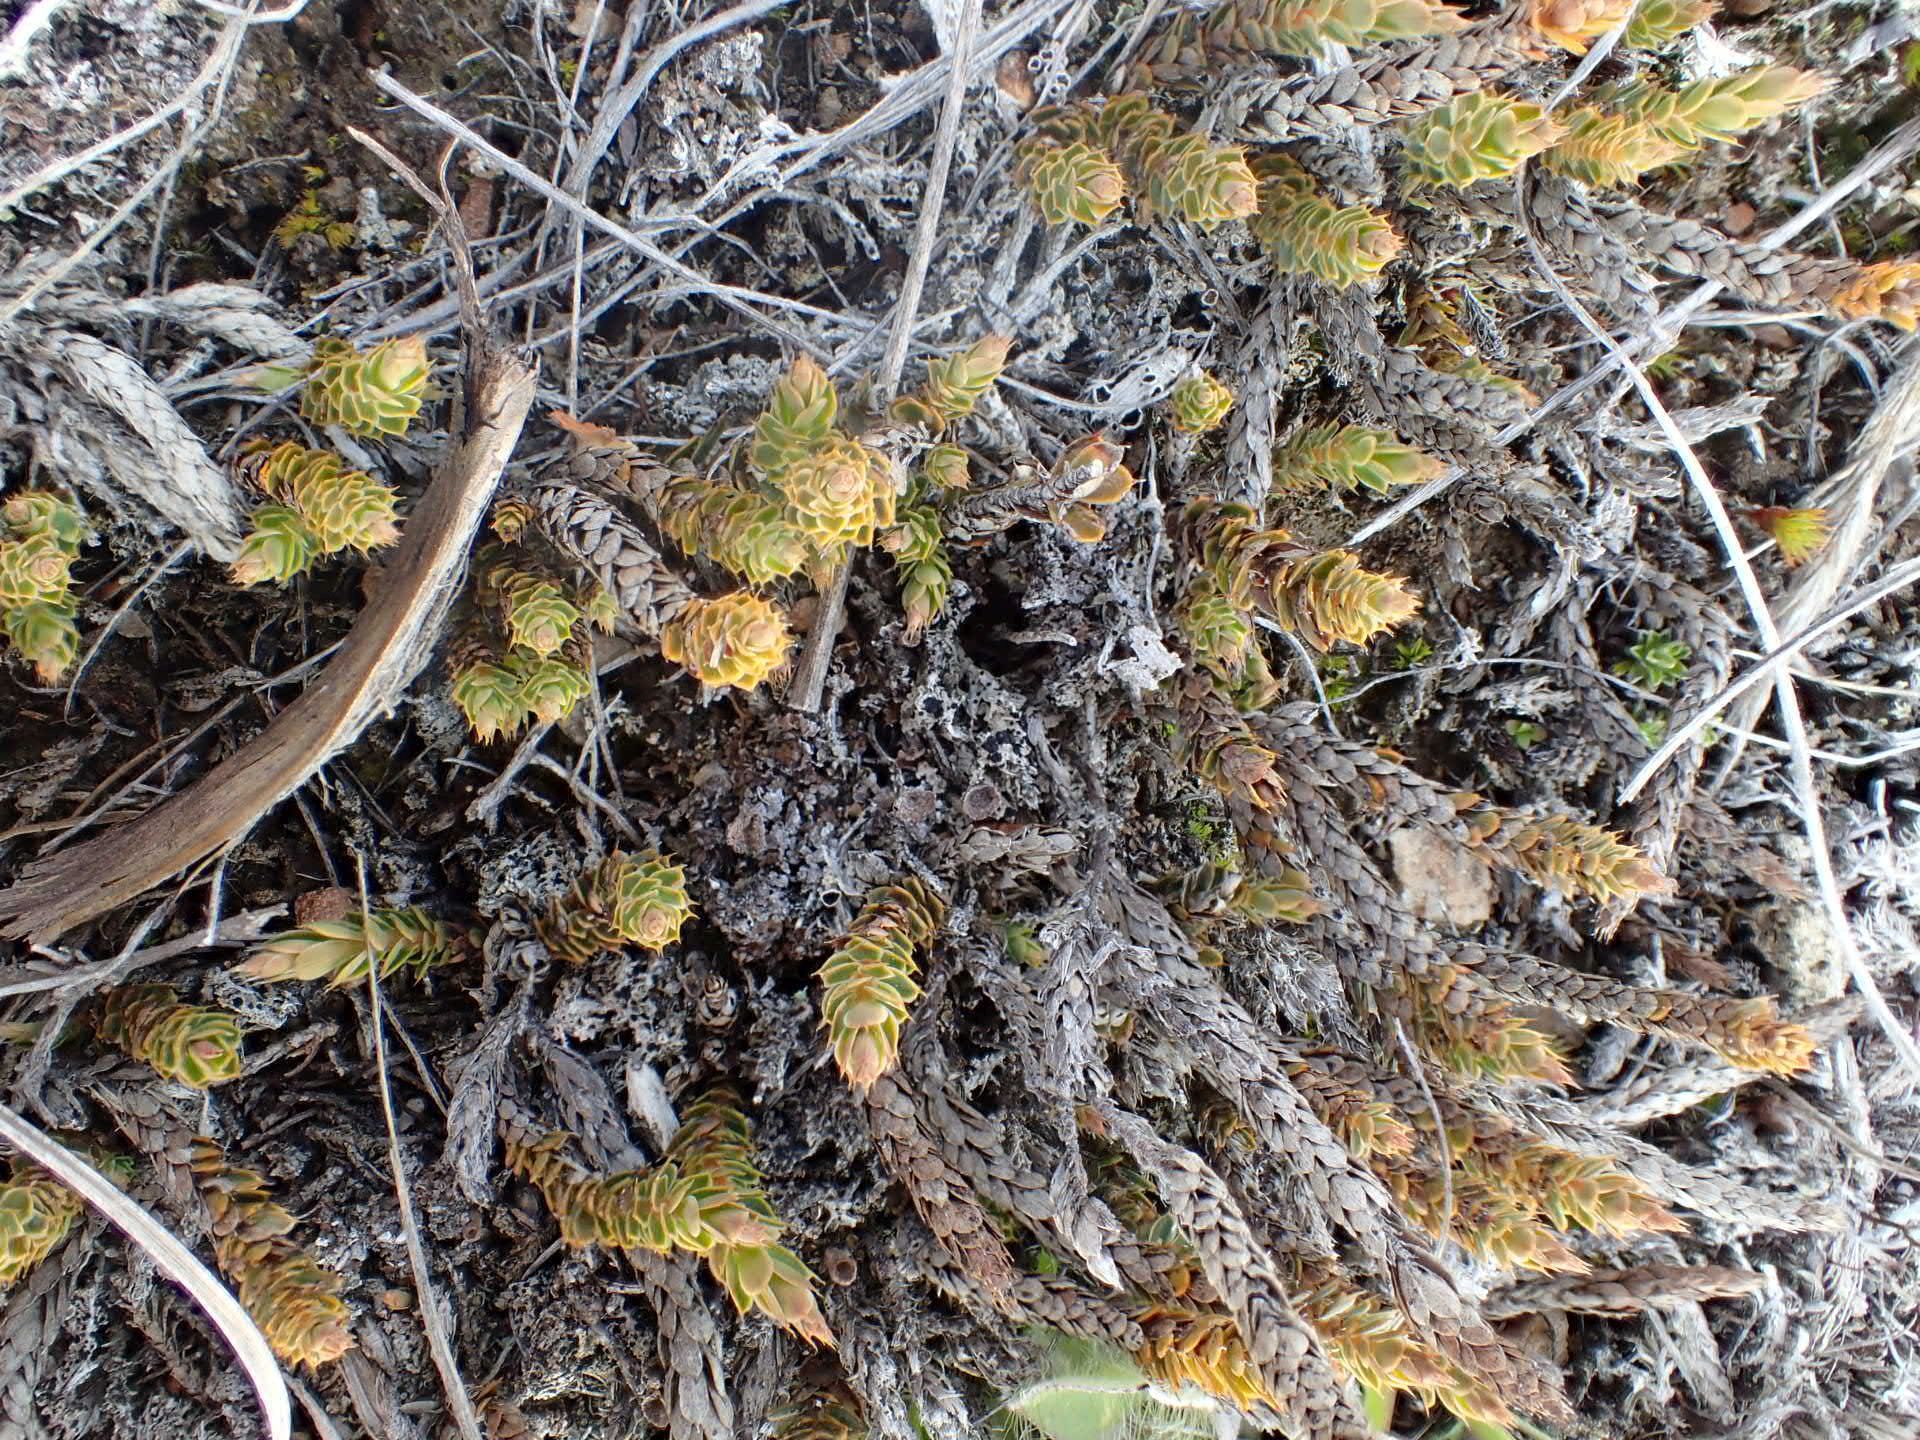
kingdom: Plantae
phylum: Tracheophyta
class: Magnoliopsida
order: Ericales
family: Ericaceae
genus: Styphelia
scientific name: Styphelia nesophila
